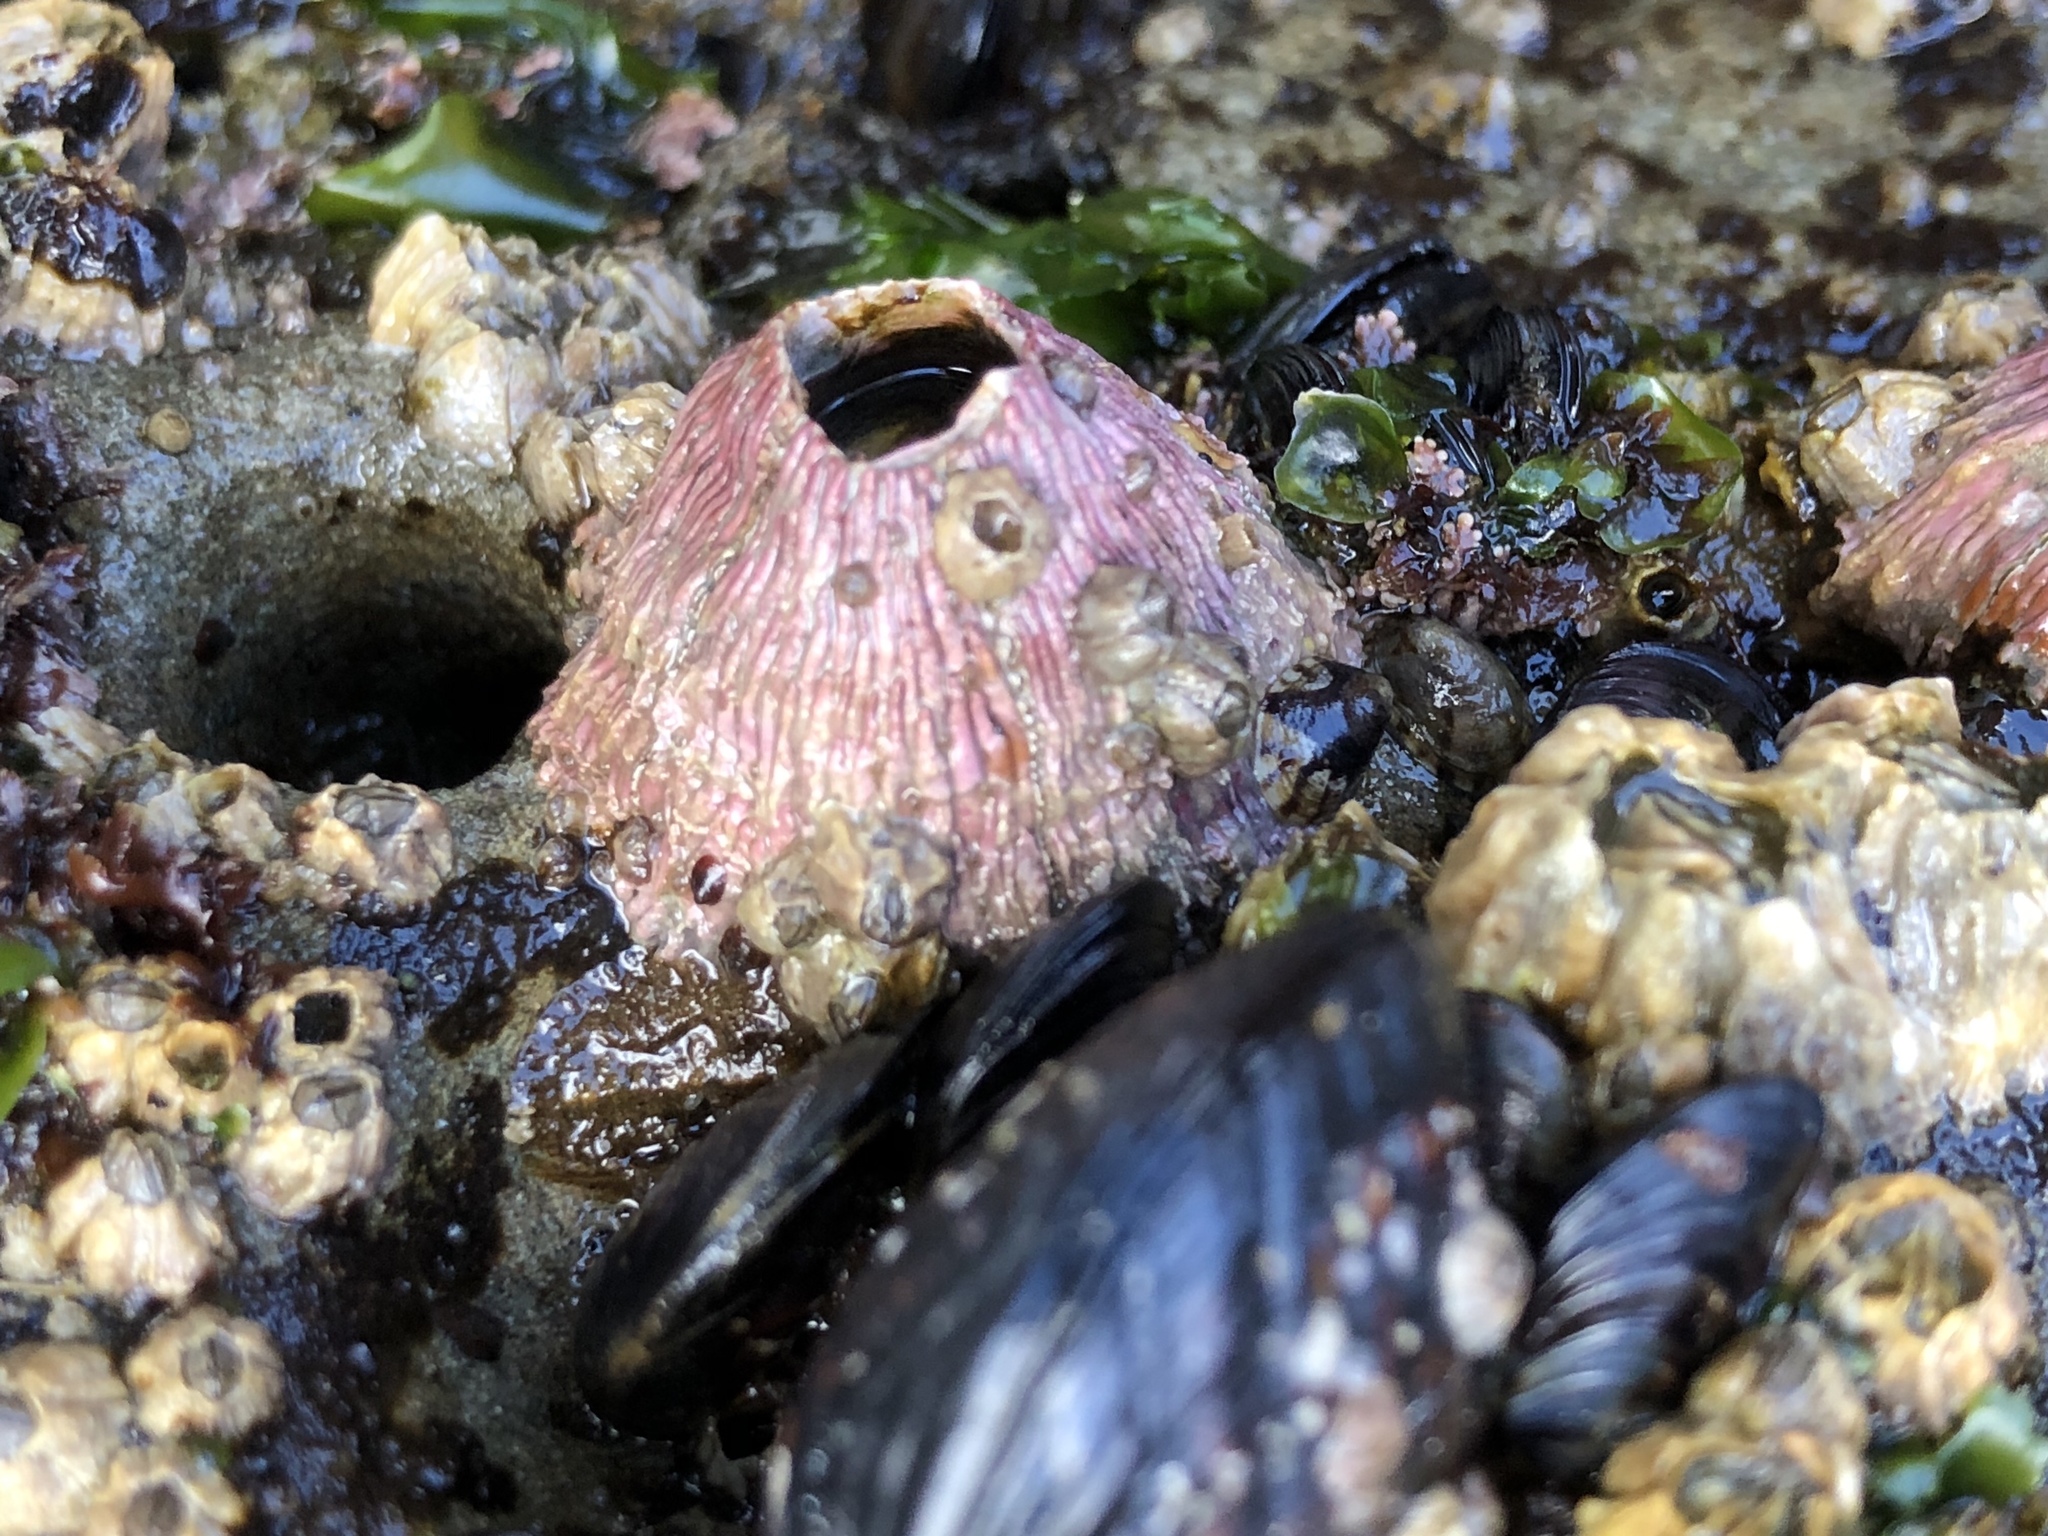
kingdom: Animalia
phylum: Arthropoda
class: Maxillopoda
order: Sessilia
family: Tetraclitidae
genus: Tetraclita
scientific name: Tetraclita rubescens
